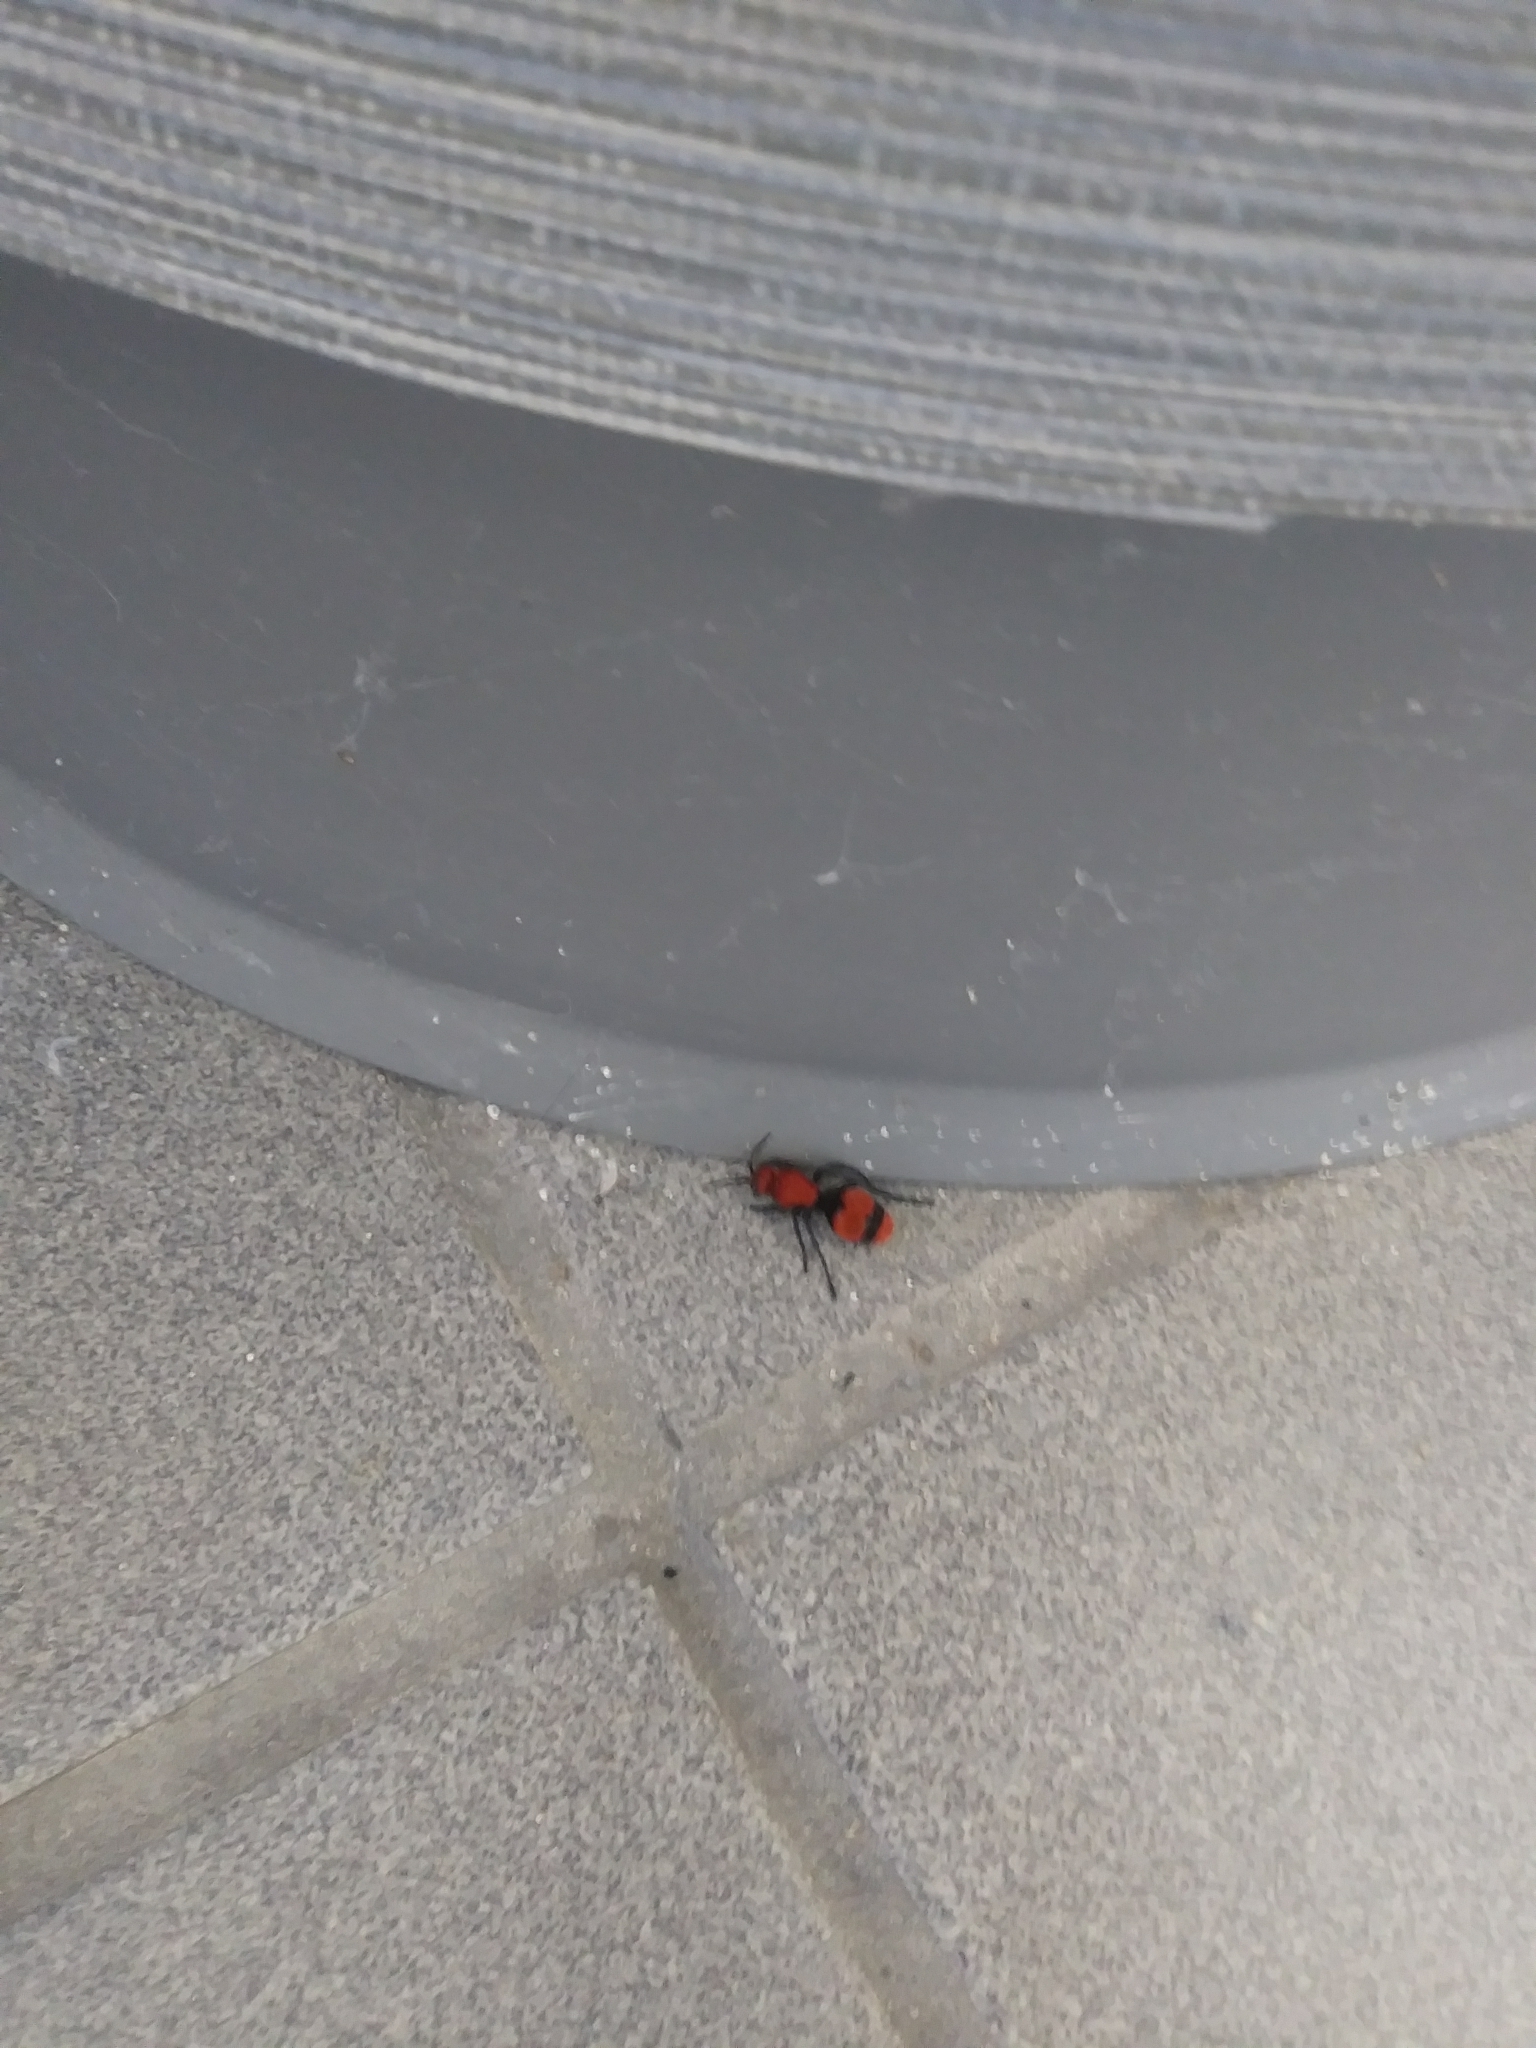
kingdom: Animalia
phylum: Arthropoda
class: Insecta
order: Hymenoptera
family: Mutillidae
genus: Dasymutilla
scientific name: Dasymutilla occidentalis
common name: Common eastern velvet ant
